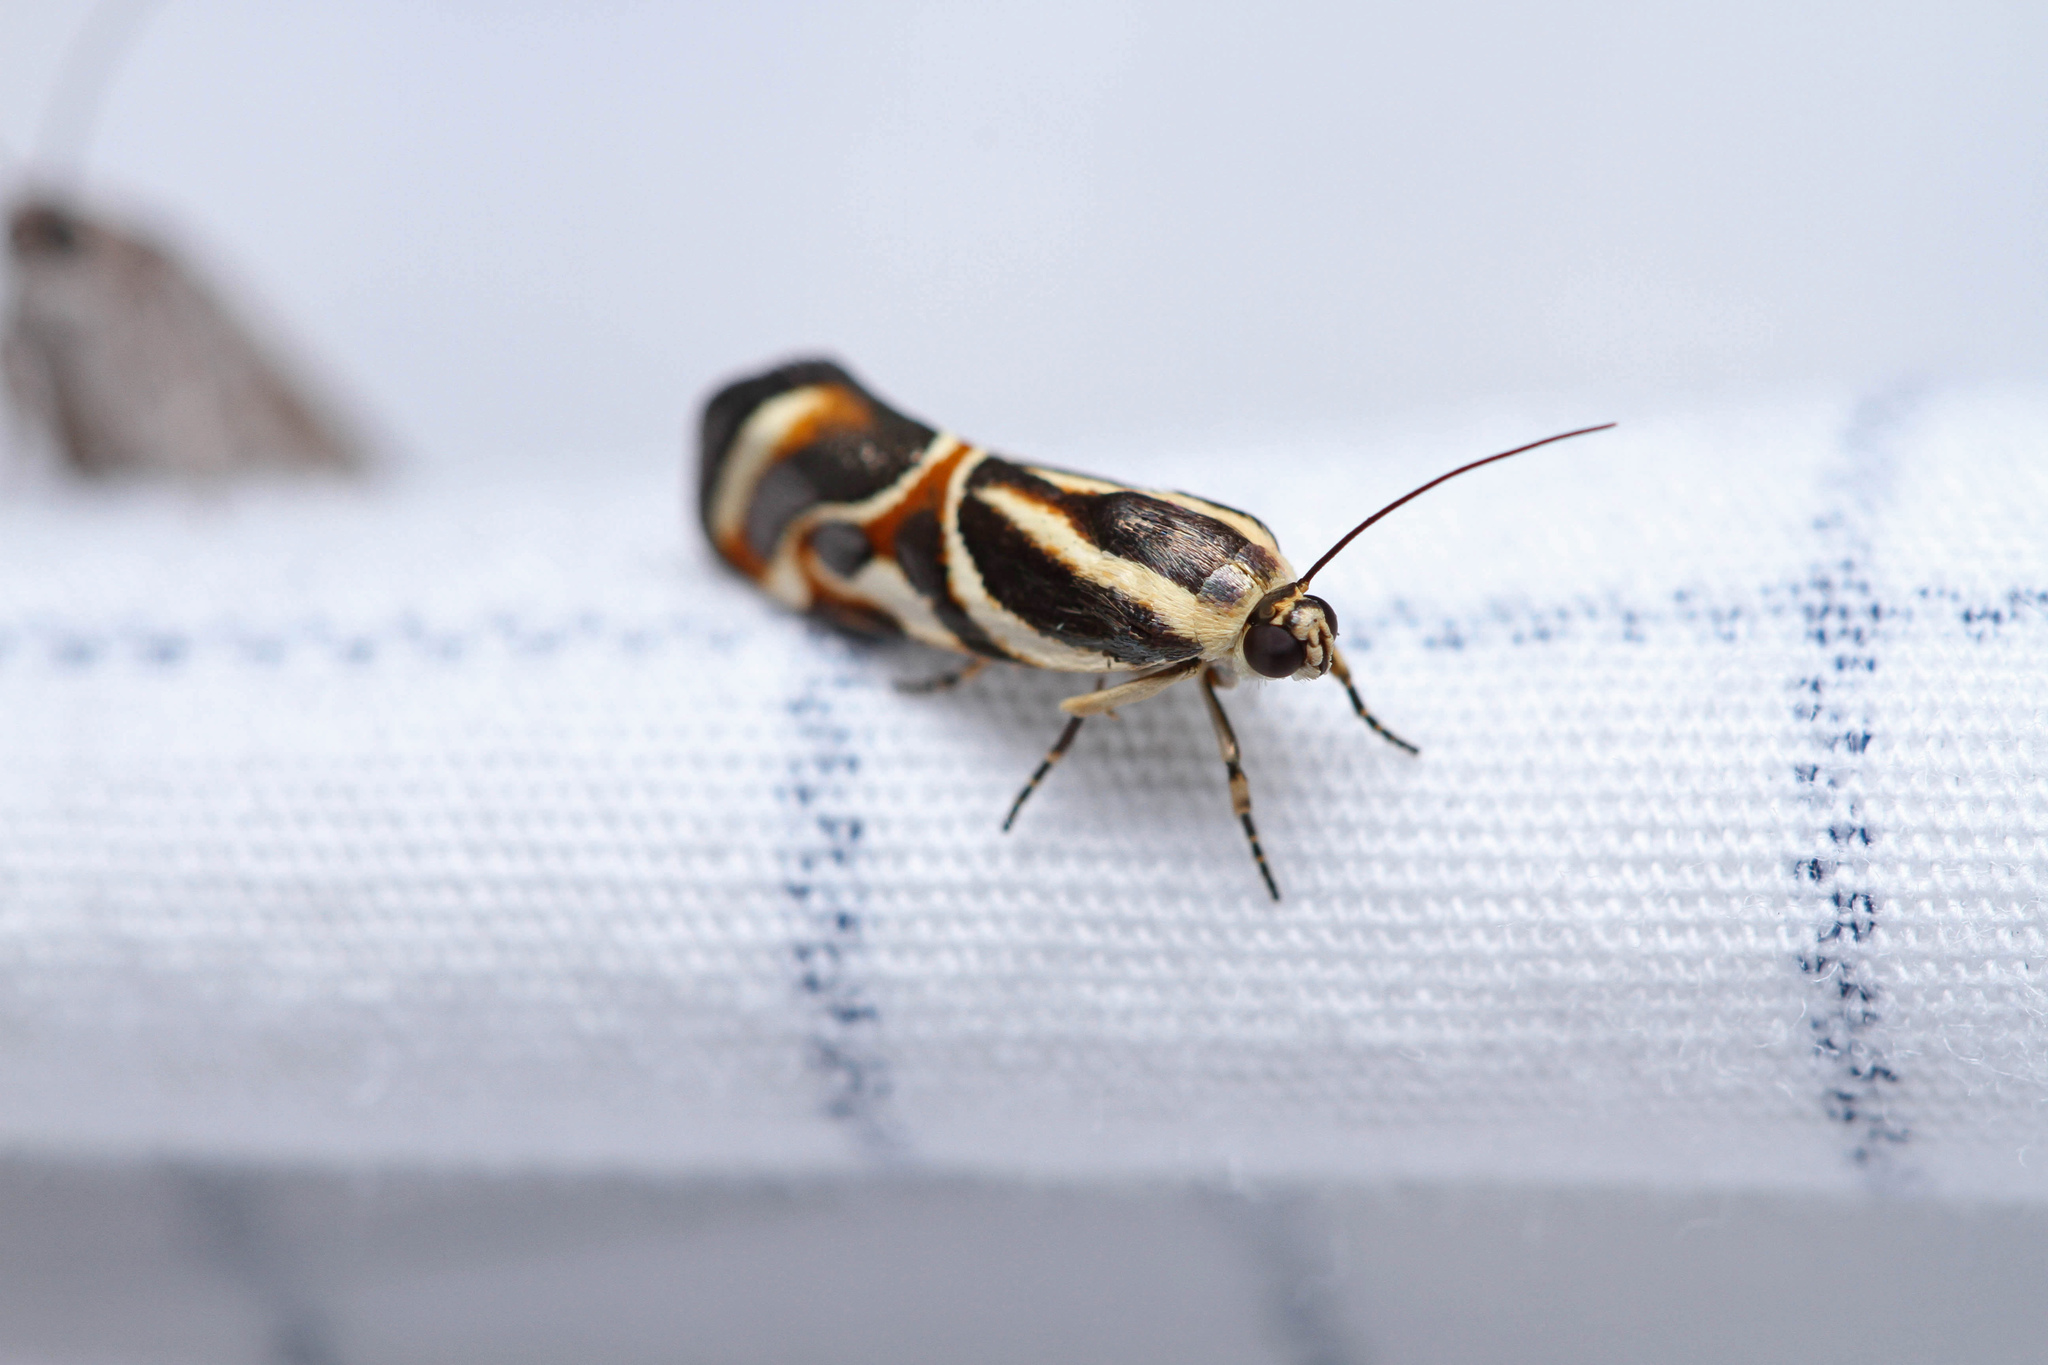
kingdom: Animalia
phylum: Arthropoda
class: Insecta
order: Lepidoptera
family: Noctuidae
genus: Spragueia
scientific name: Spragueia magnifica
